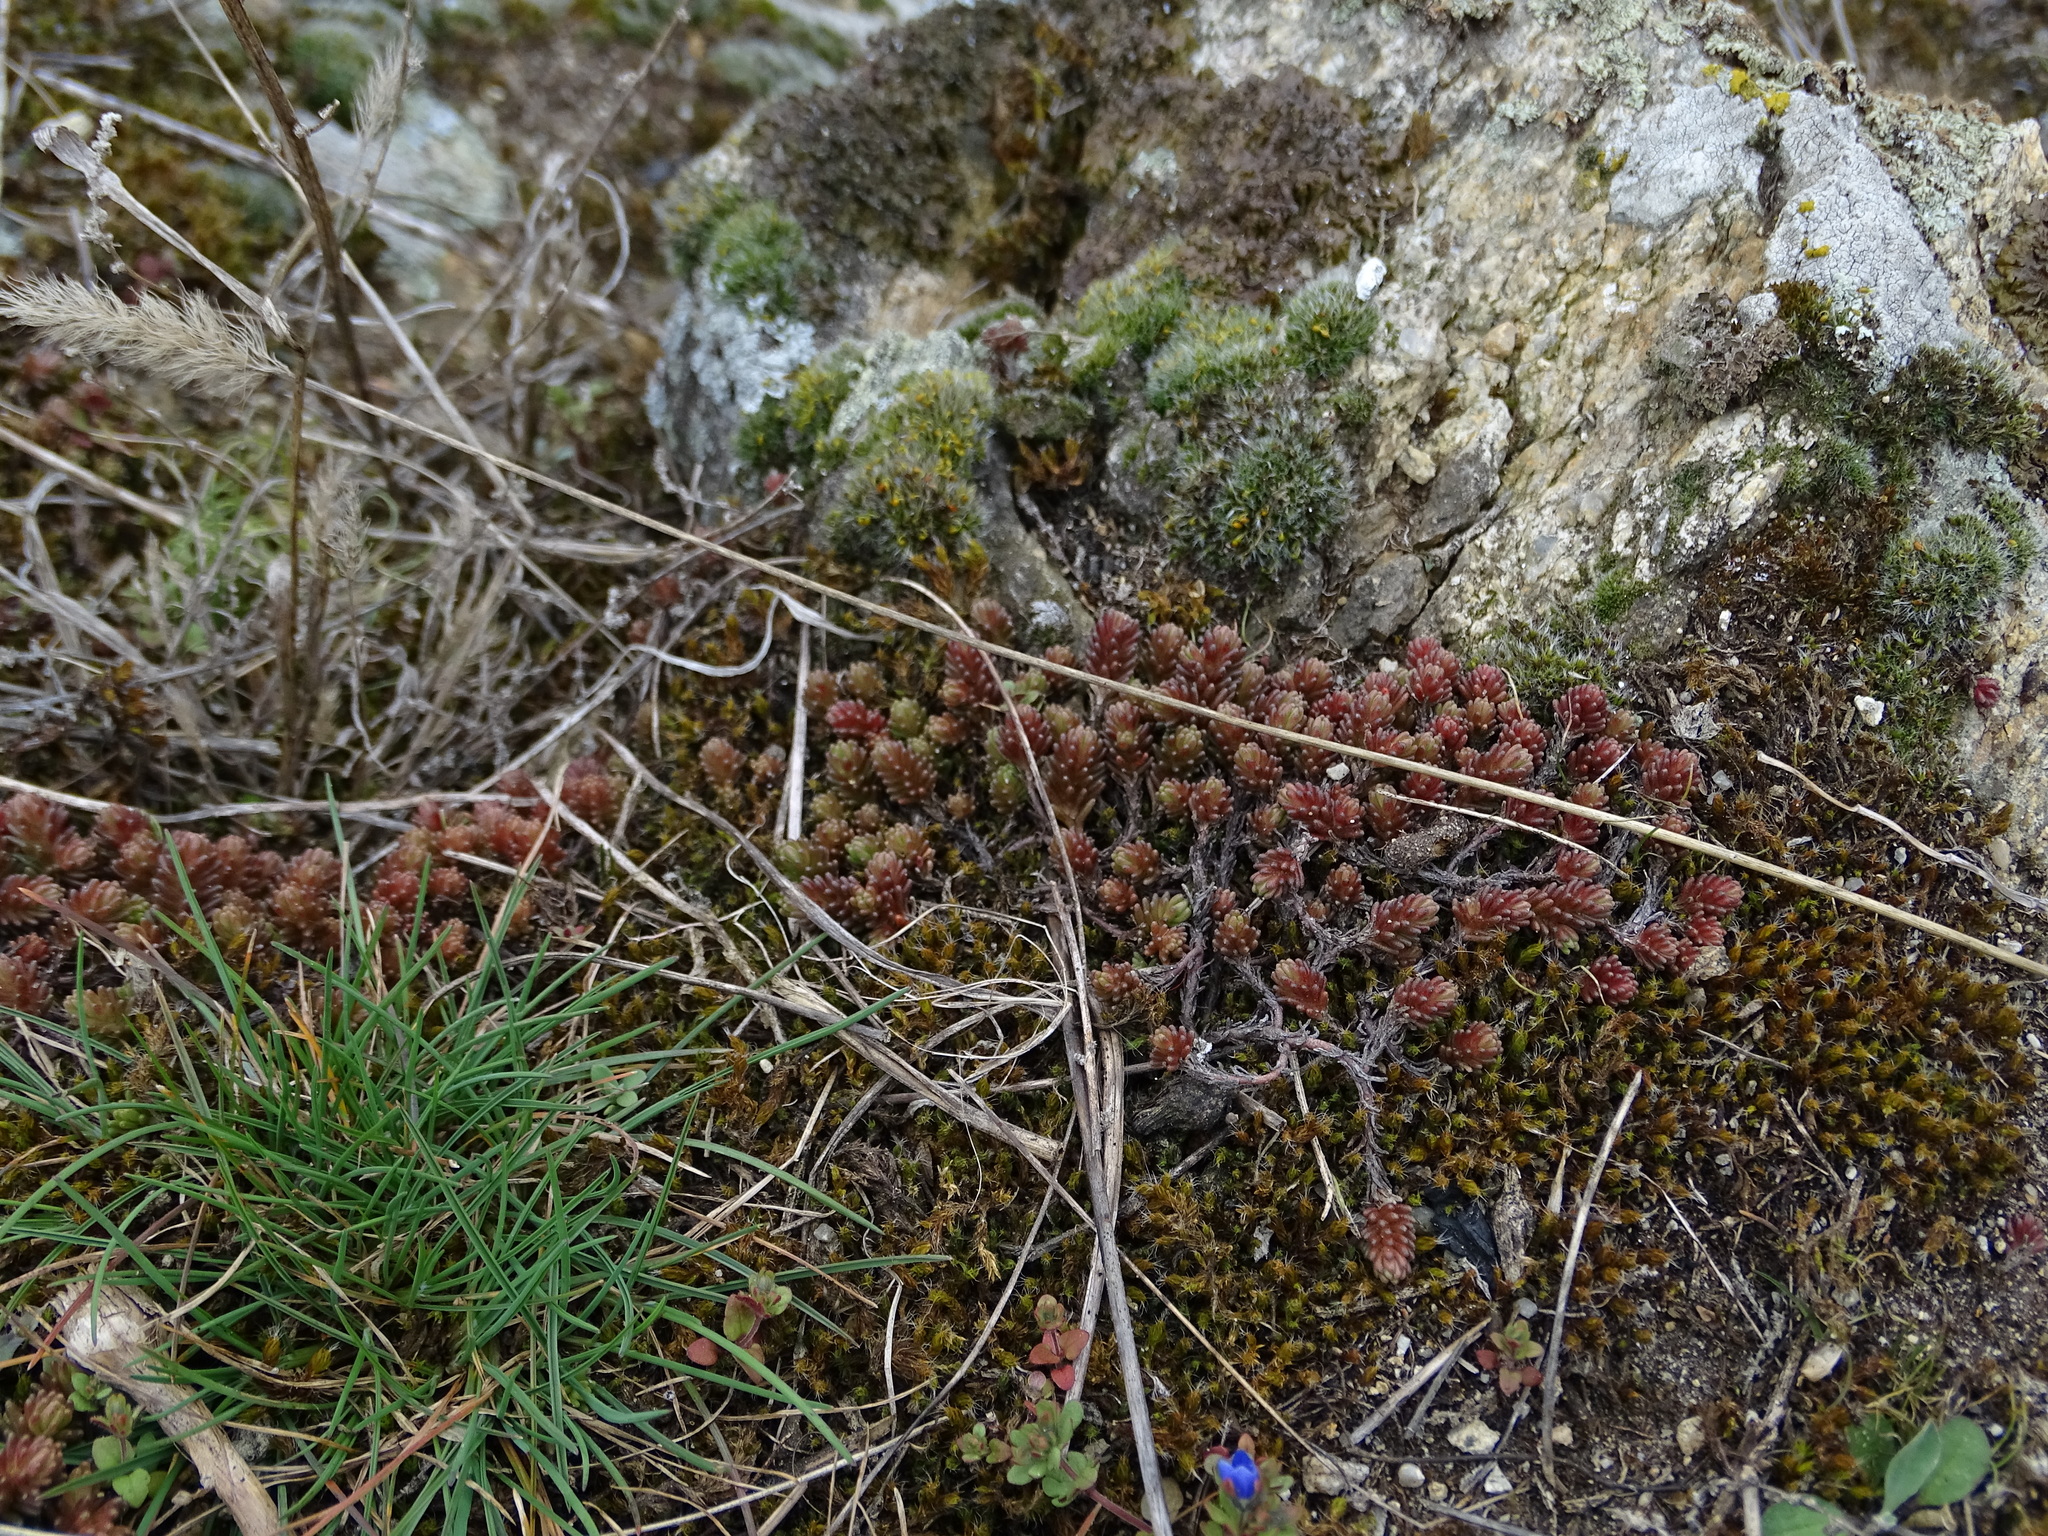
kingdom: Plantae
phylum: Tracheophyta
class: Magnoliopsida
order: Saxifragales
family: Crassulaceae
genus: Sedum
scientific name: Sedum sexangulare
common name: Tasteless stonecrop
